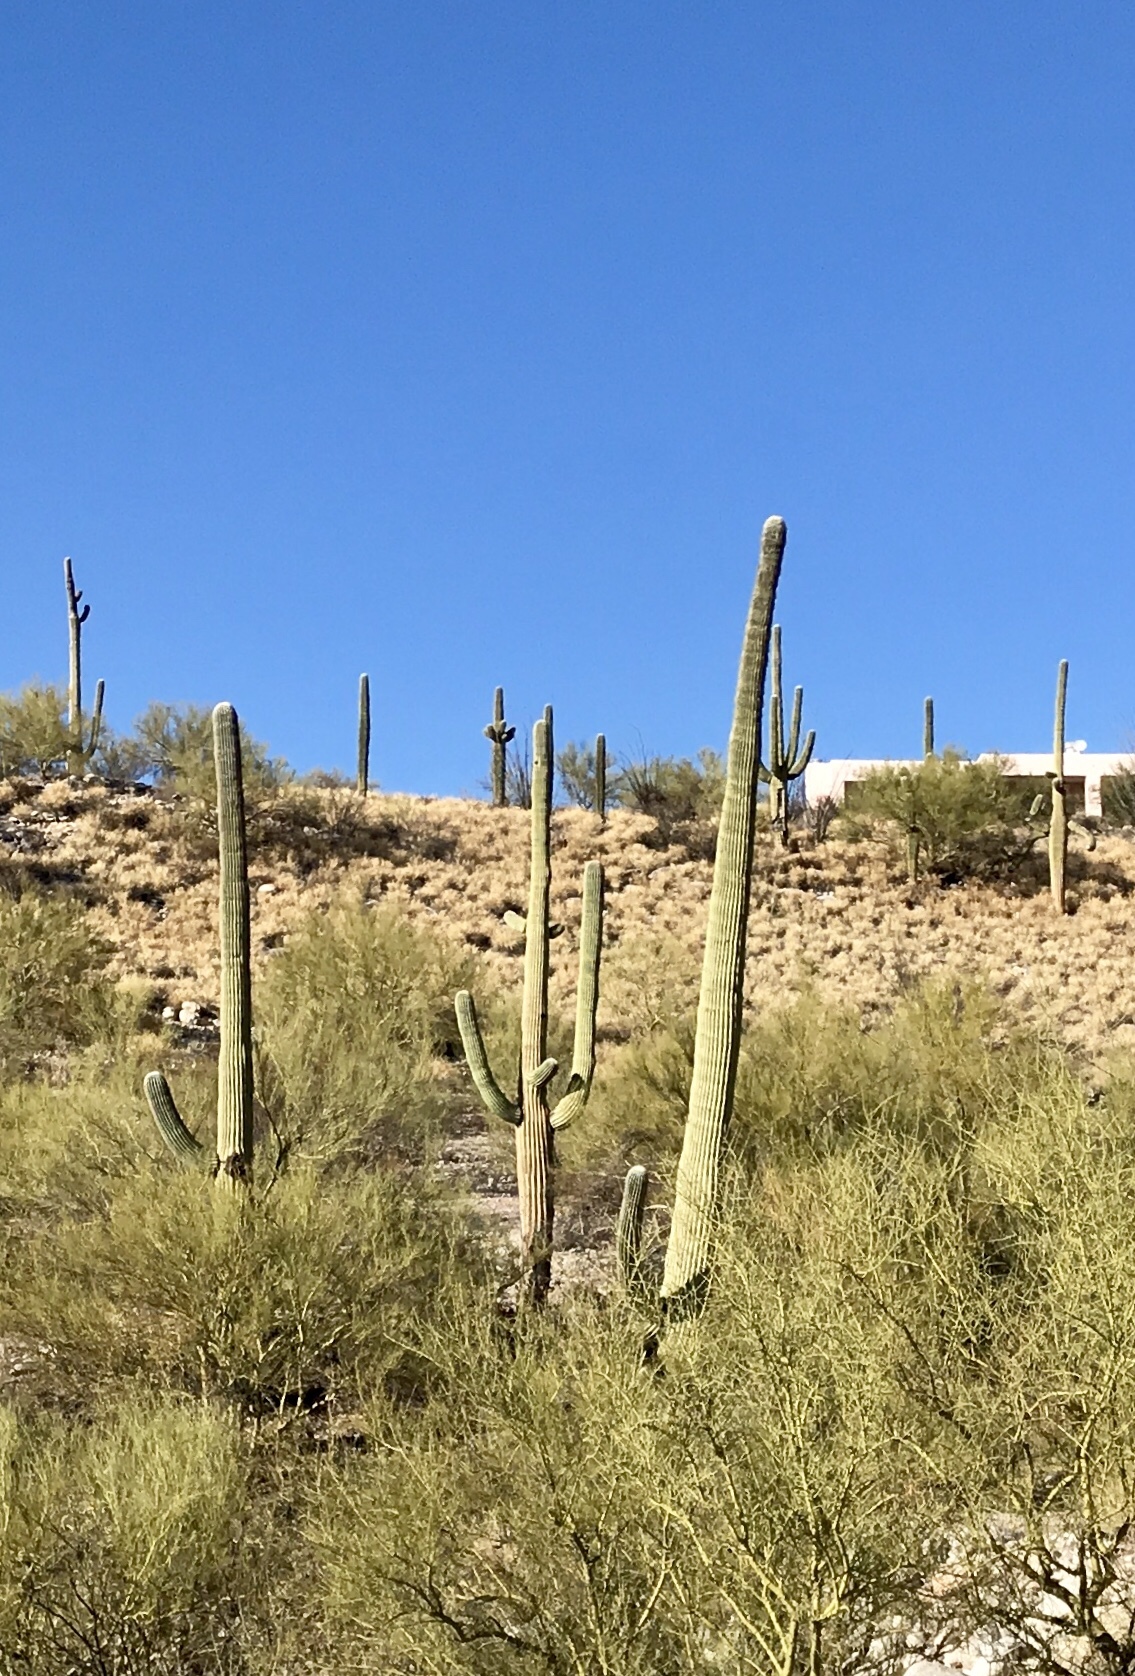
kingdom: Plantae
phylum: Tracheophyta
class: Magnoliopsida
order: Caryophyllales
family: Cactaceae
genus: Carnegiea
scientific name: Carnegiea gigantea
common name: Saguaro
